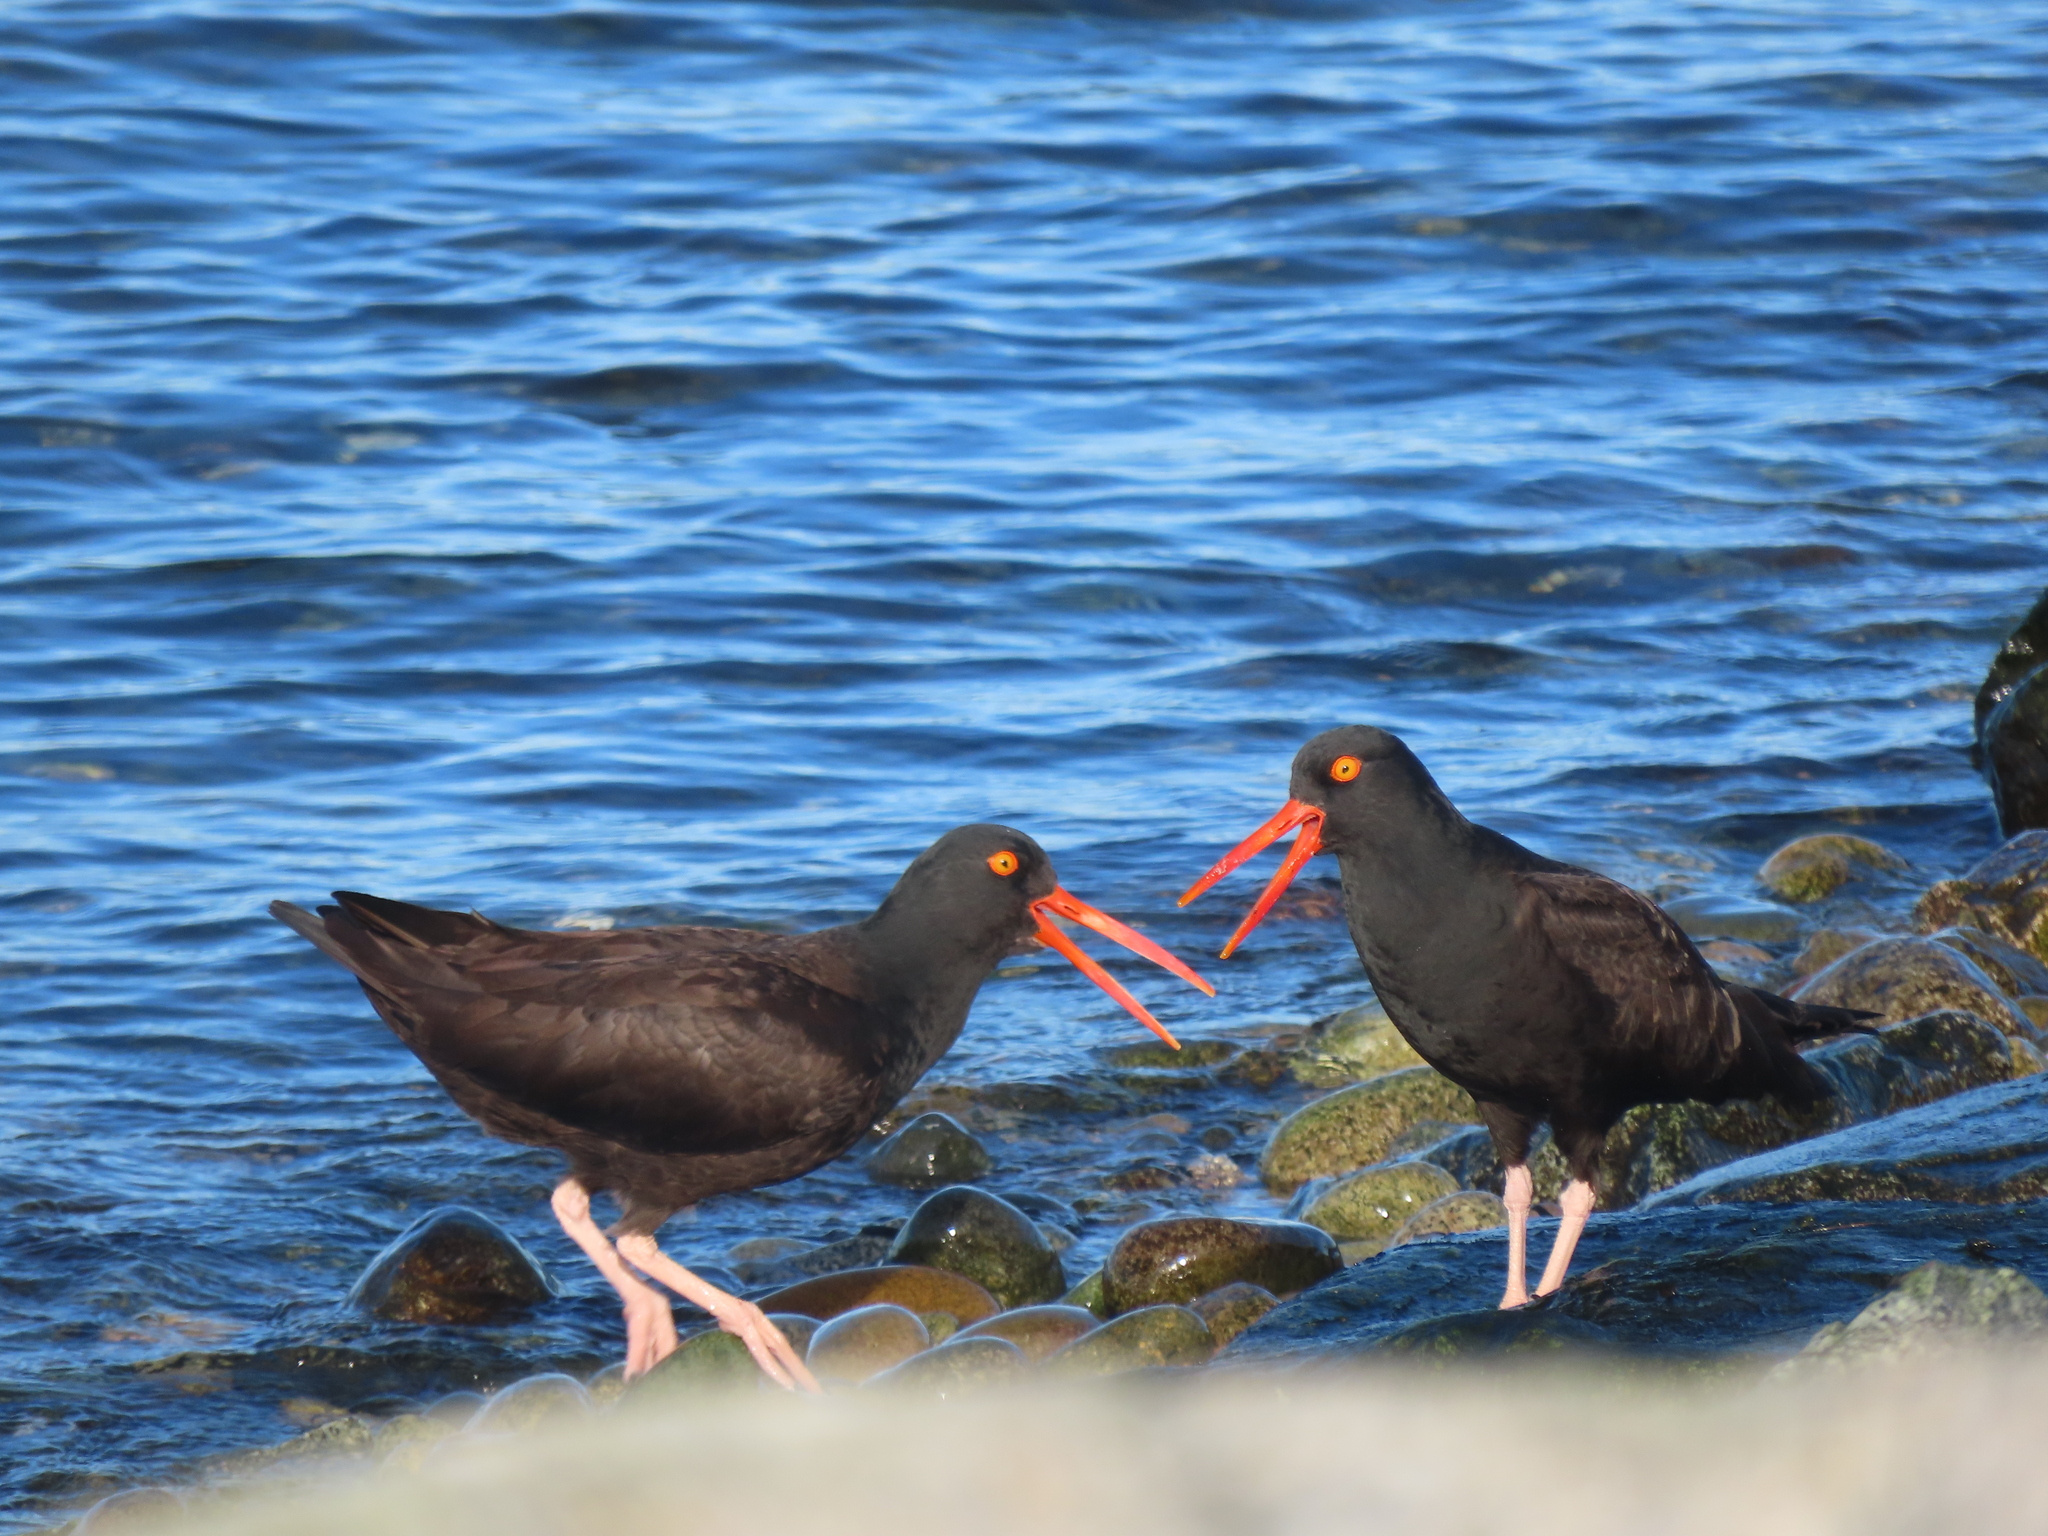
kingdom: Animalia
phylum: Chordata
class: Aves
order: Charadriiformes
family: Haematopodidae
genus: Haematopus
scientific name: Haematopus bachmani
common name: Black oystercatcher
